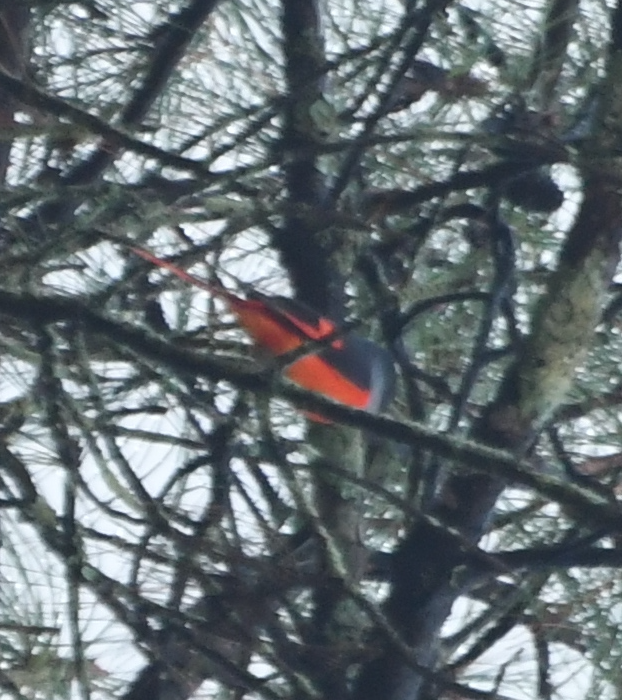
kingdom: Animalia
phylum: Chordata
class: Aves
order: Passeriformes
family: Campephagidae
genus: Pericrocotus
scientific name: Pericrocotus solaris
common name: Grey-chinned minivet
